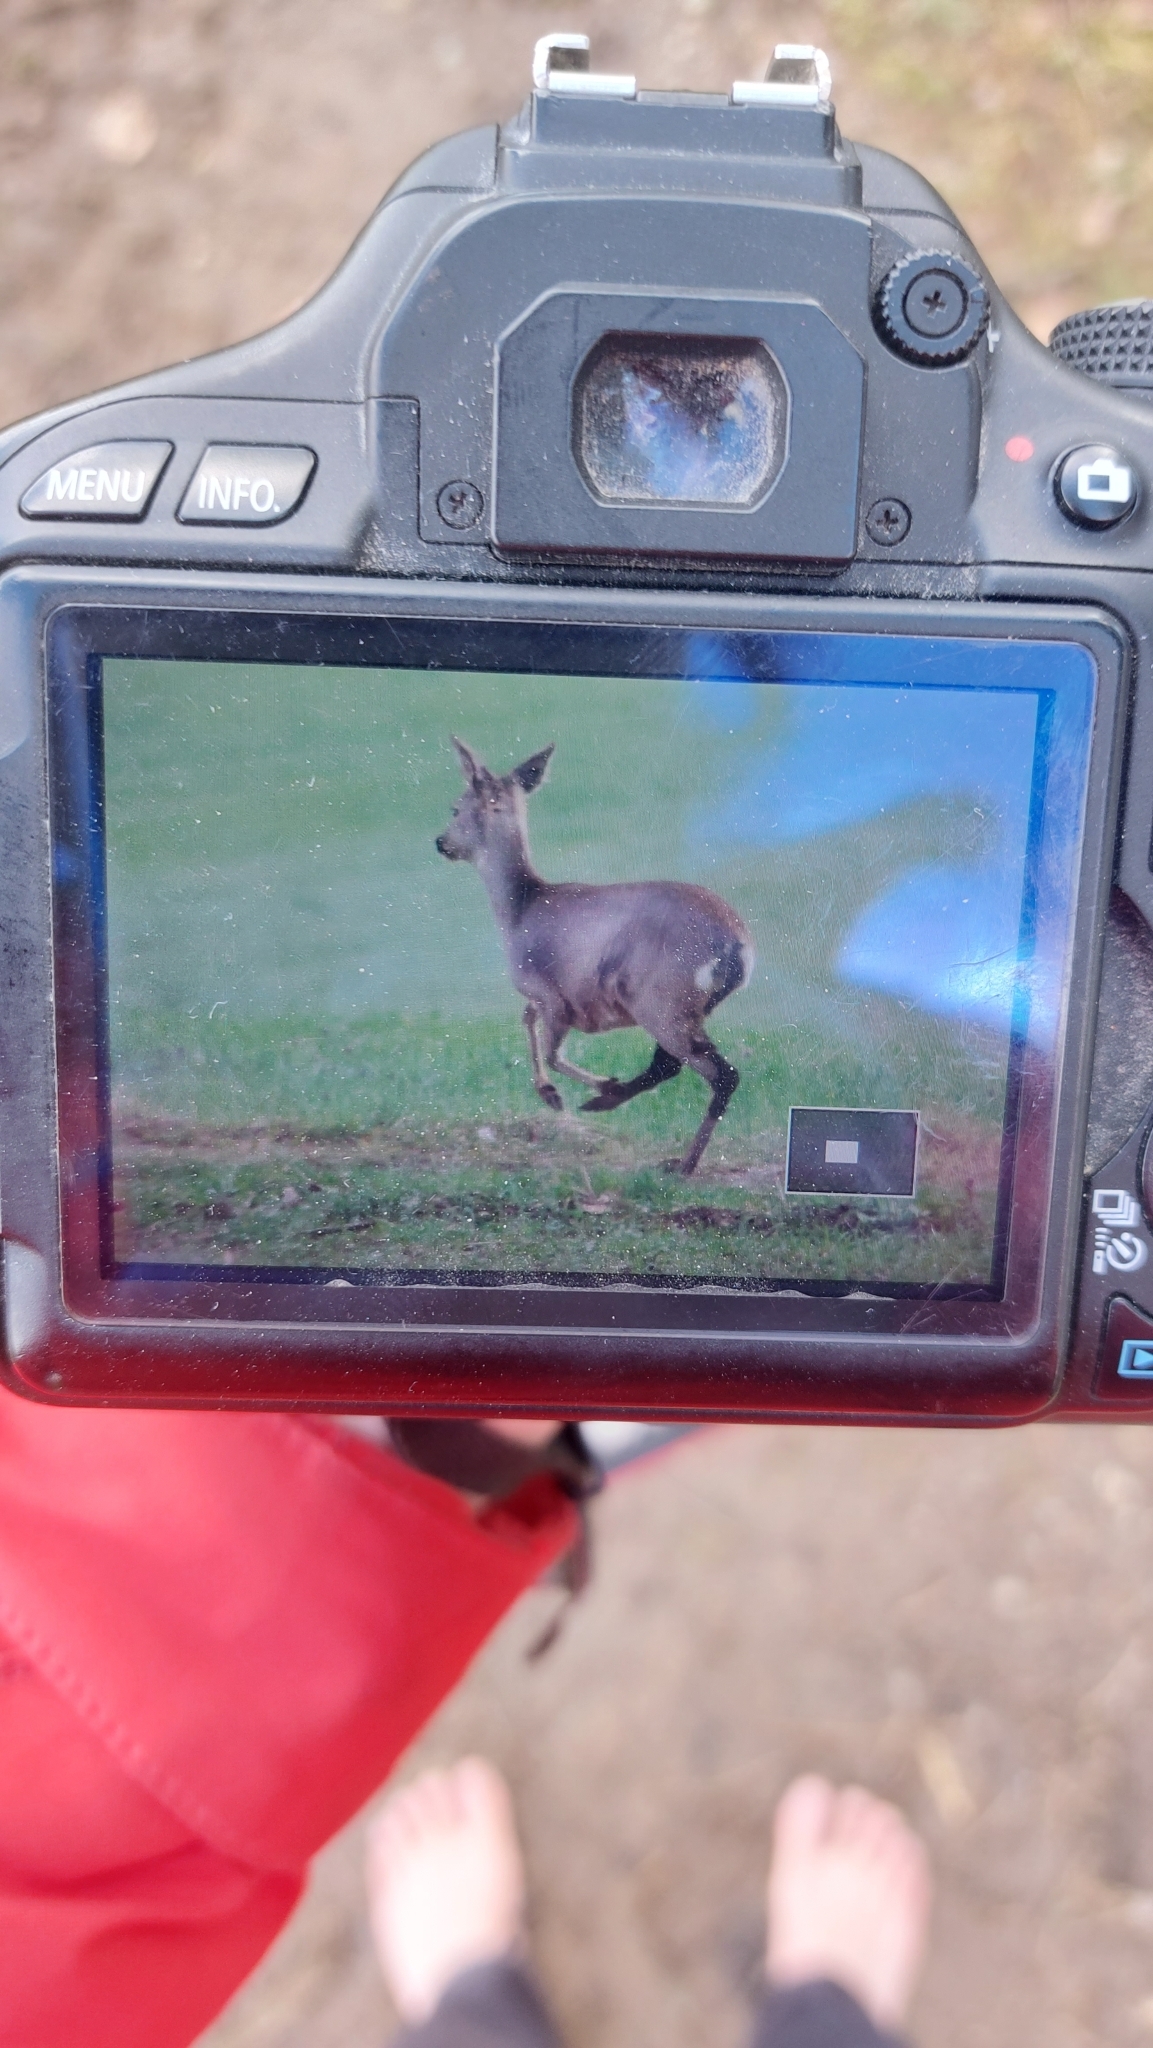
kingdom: Animalia
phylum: Chordata
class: Mammalia
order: Artiodactyla
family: Cervidae
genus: Capreolus
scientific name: Capreolus capreolus
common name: Western roe deer
